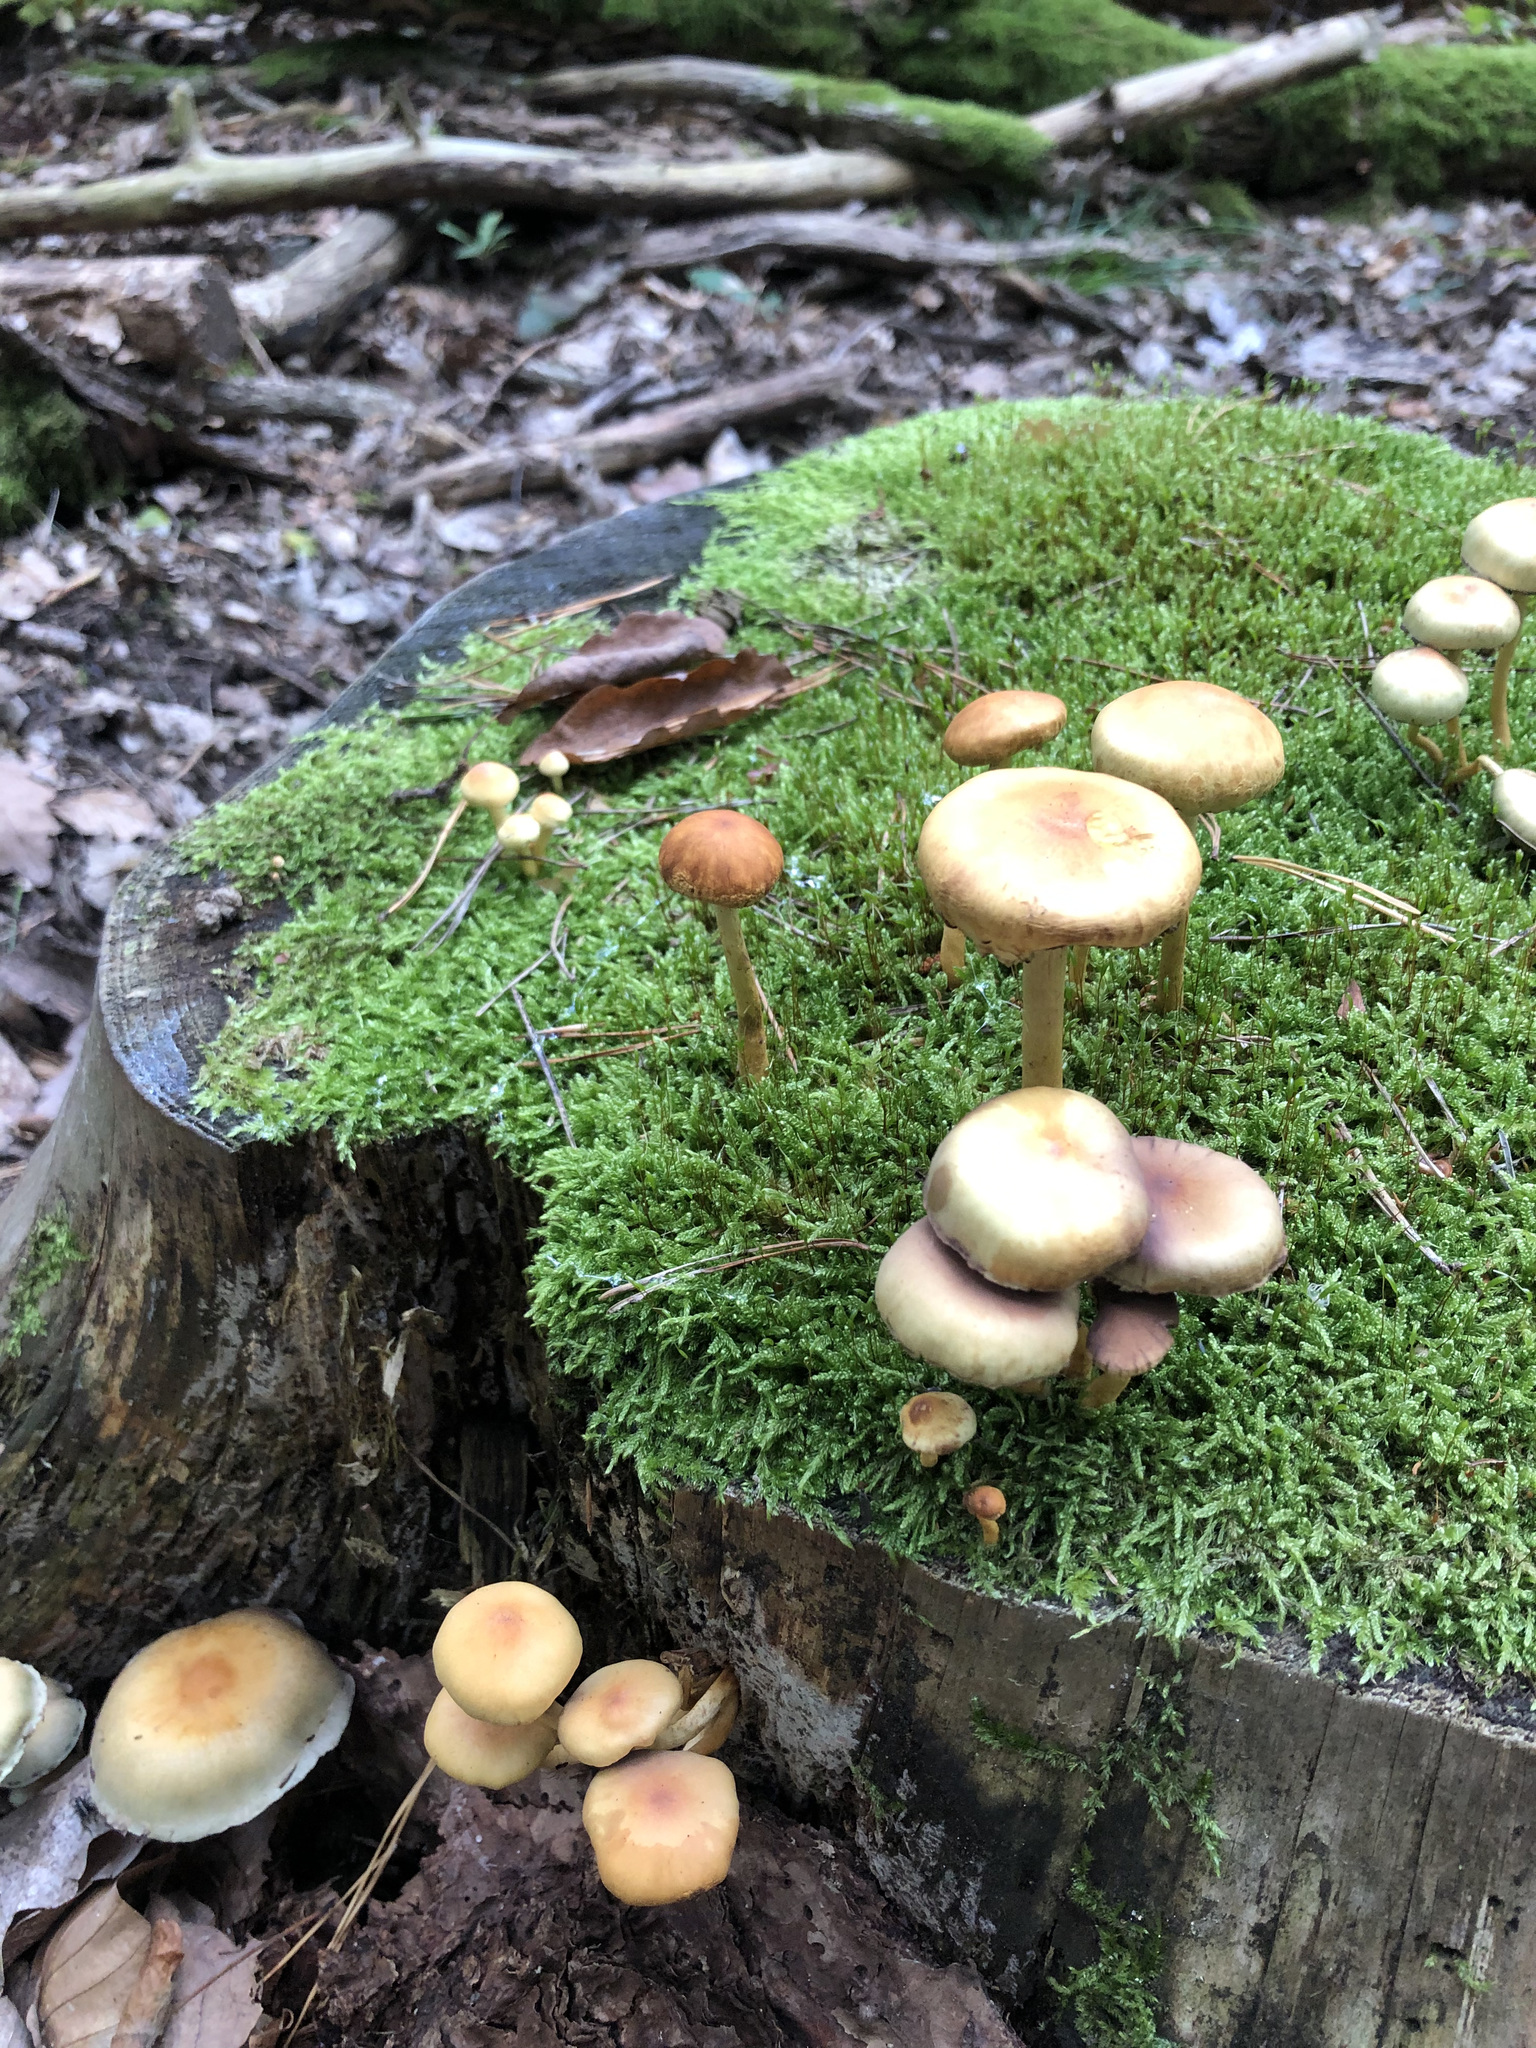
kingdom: Fungi
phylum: Basidiomycota
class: Agaricomycetes
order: Agaricales
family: Strophariaceae
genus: Hypholoma
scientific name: Hypholoma fasciculare
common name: Sulphur tuft
